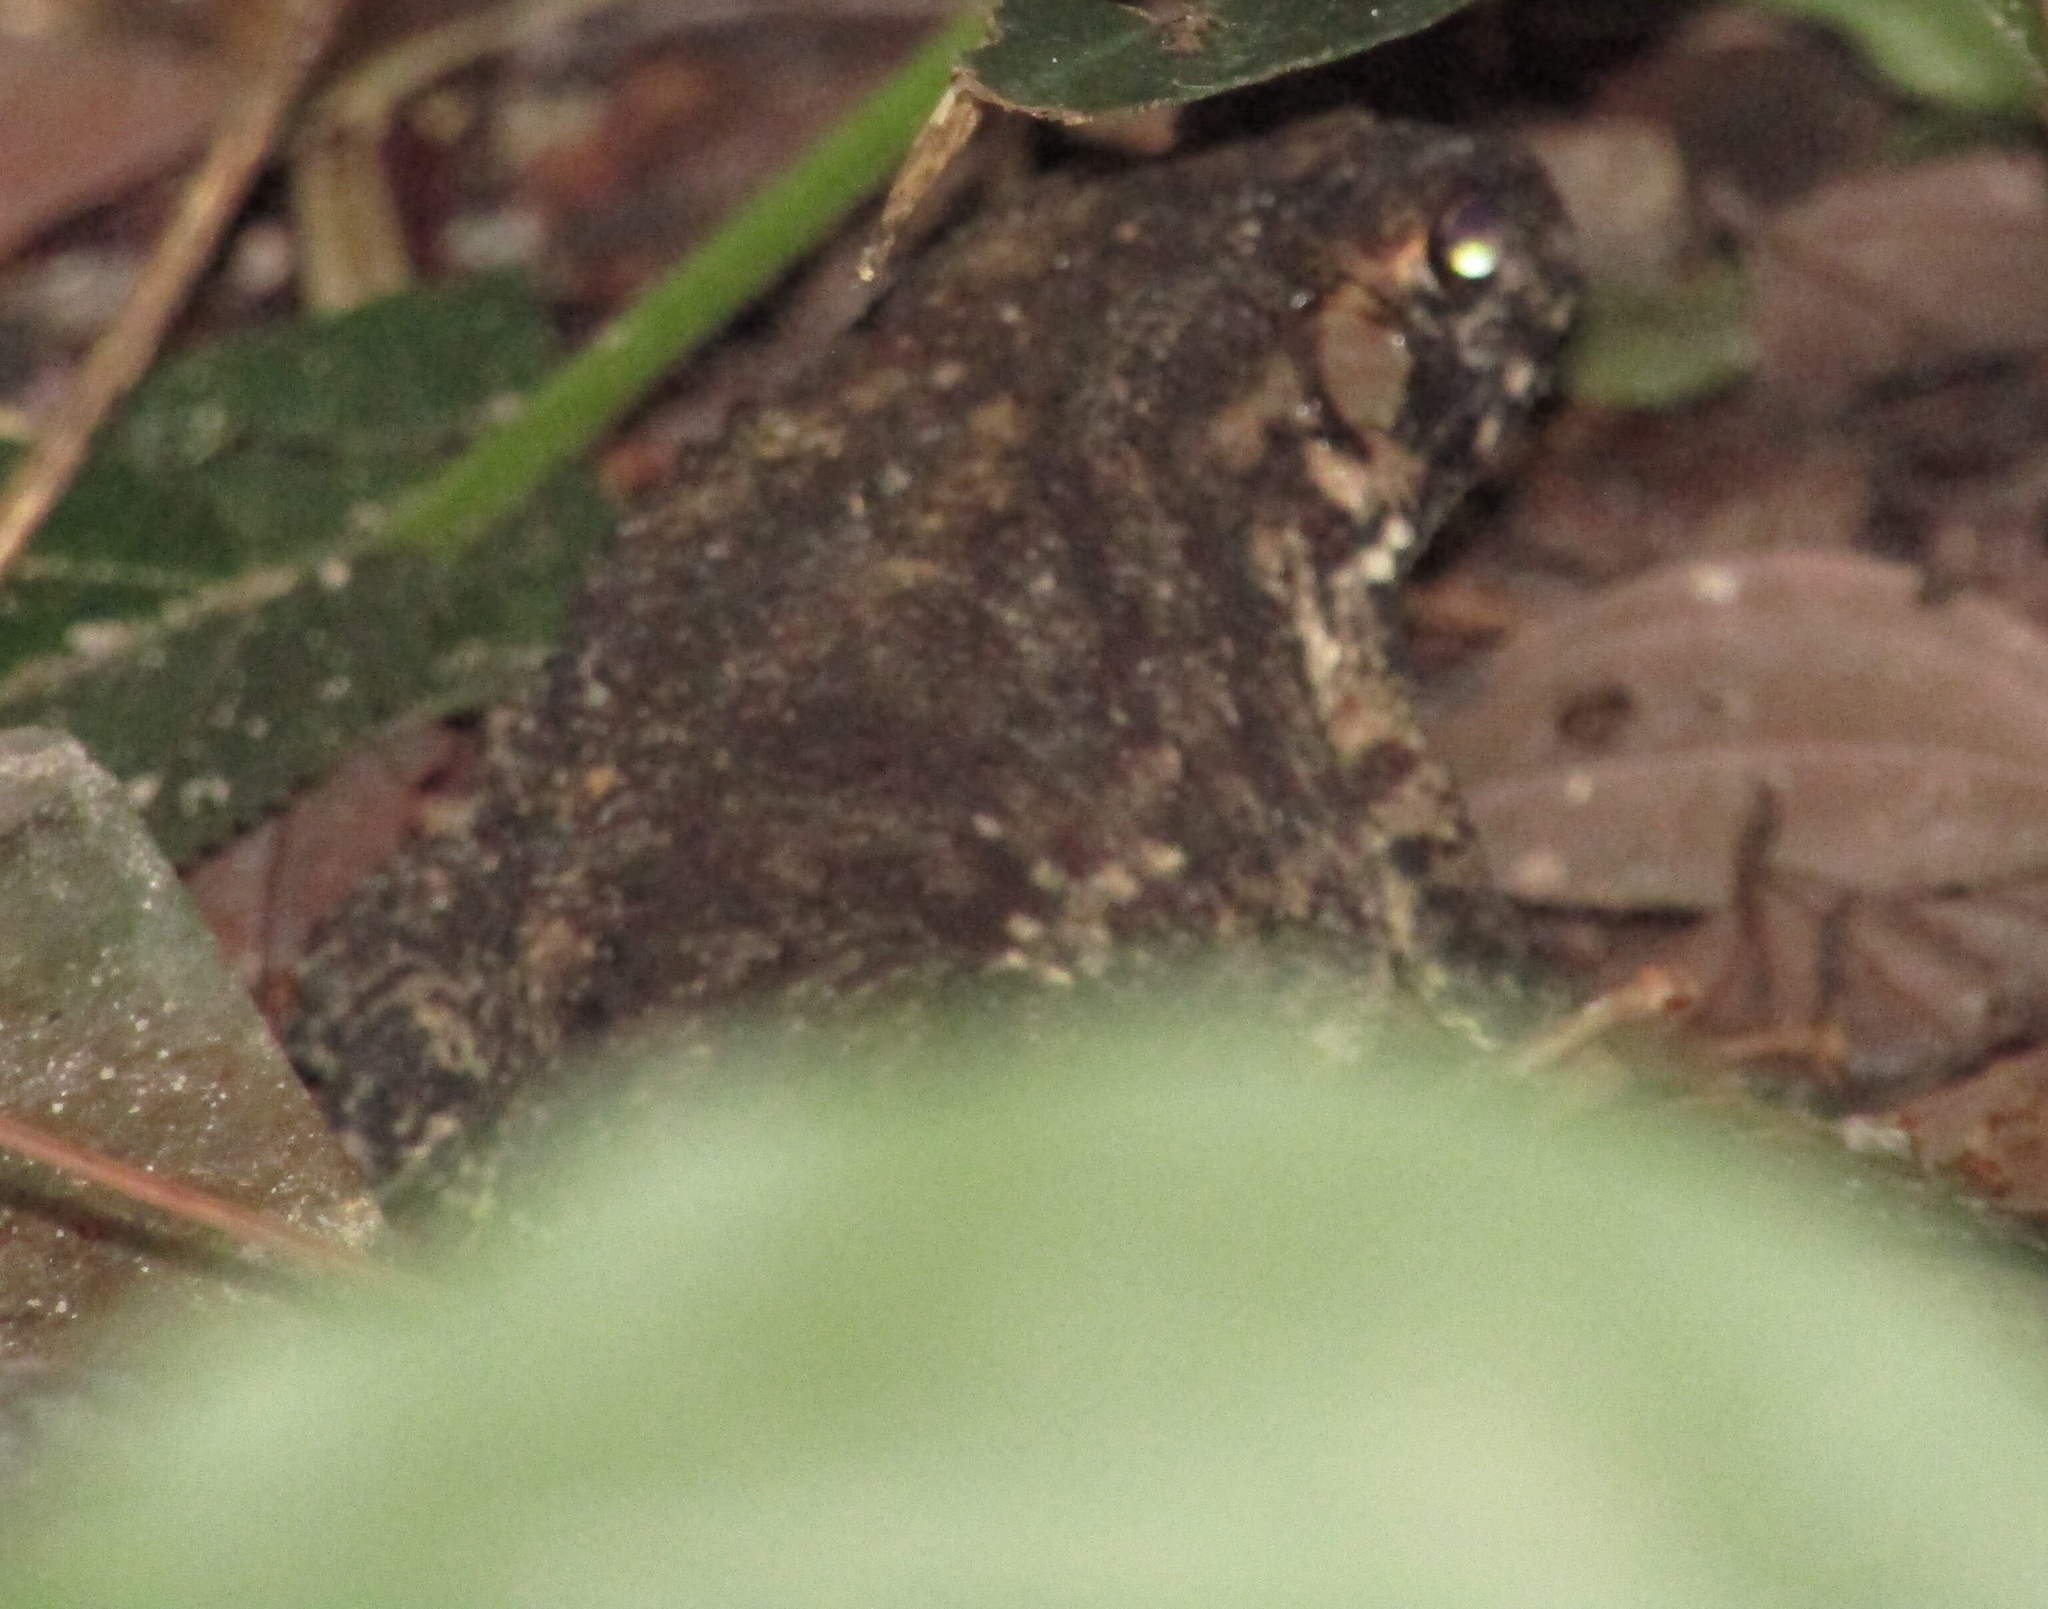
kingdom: Animalia
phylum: Chordata
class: Amphibia
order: Anura
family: Bufonidae
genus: Duttaphrynus
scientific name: Duttaphrynus melanostictus
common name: Common sunda toad
